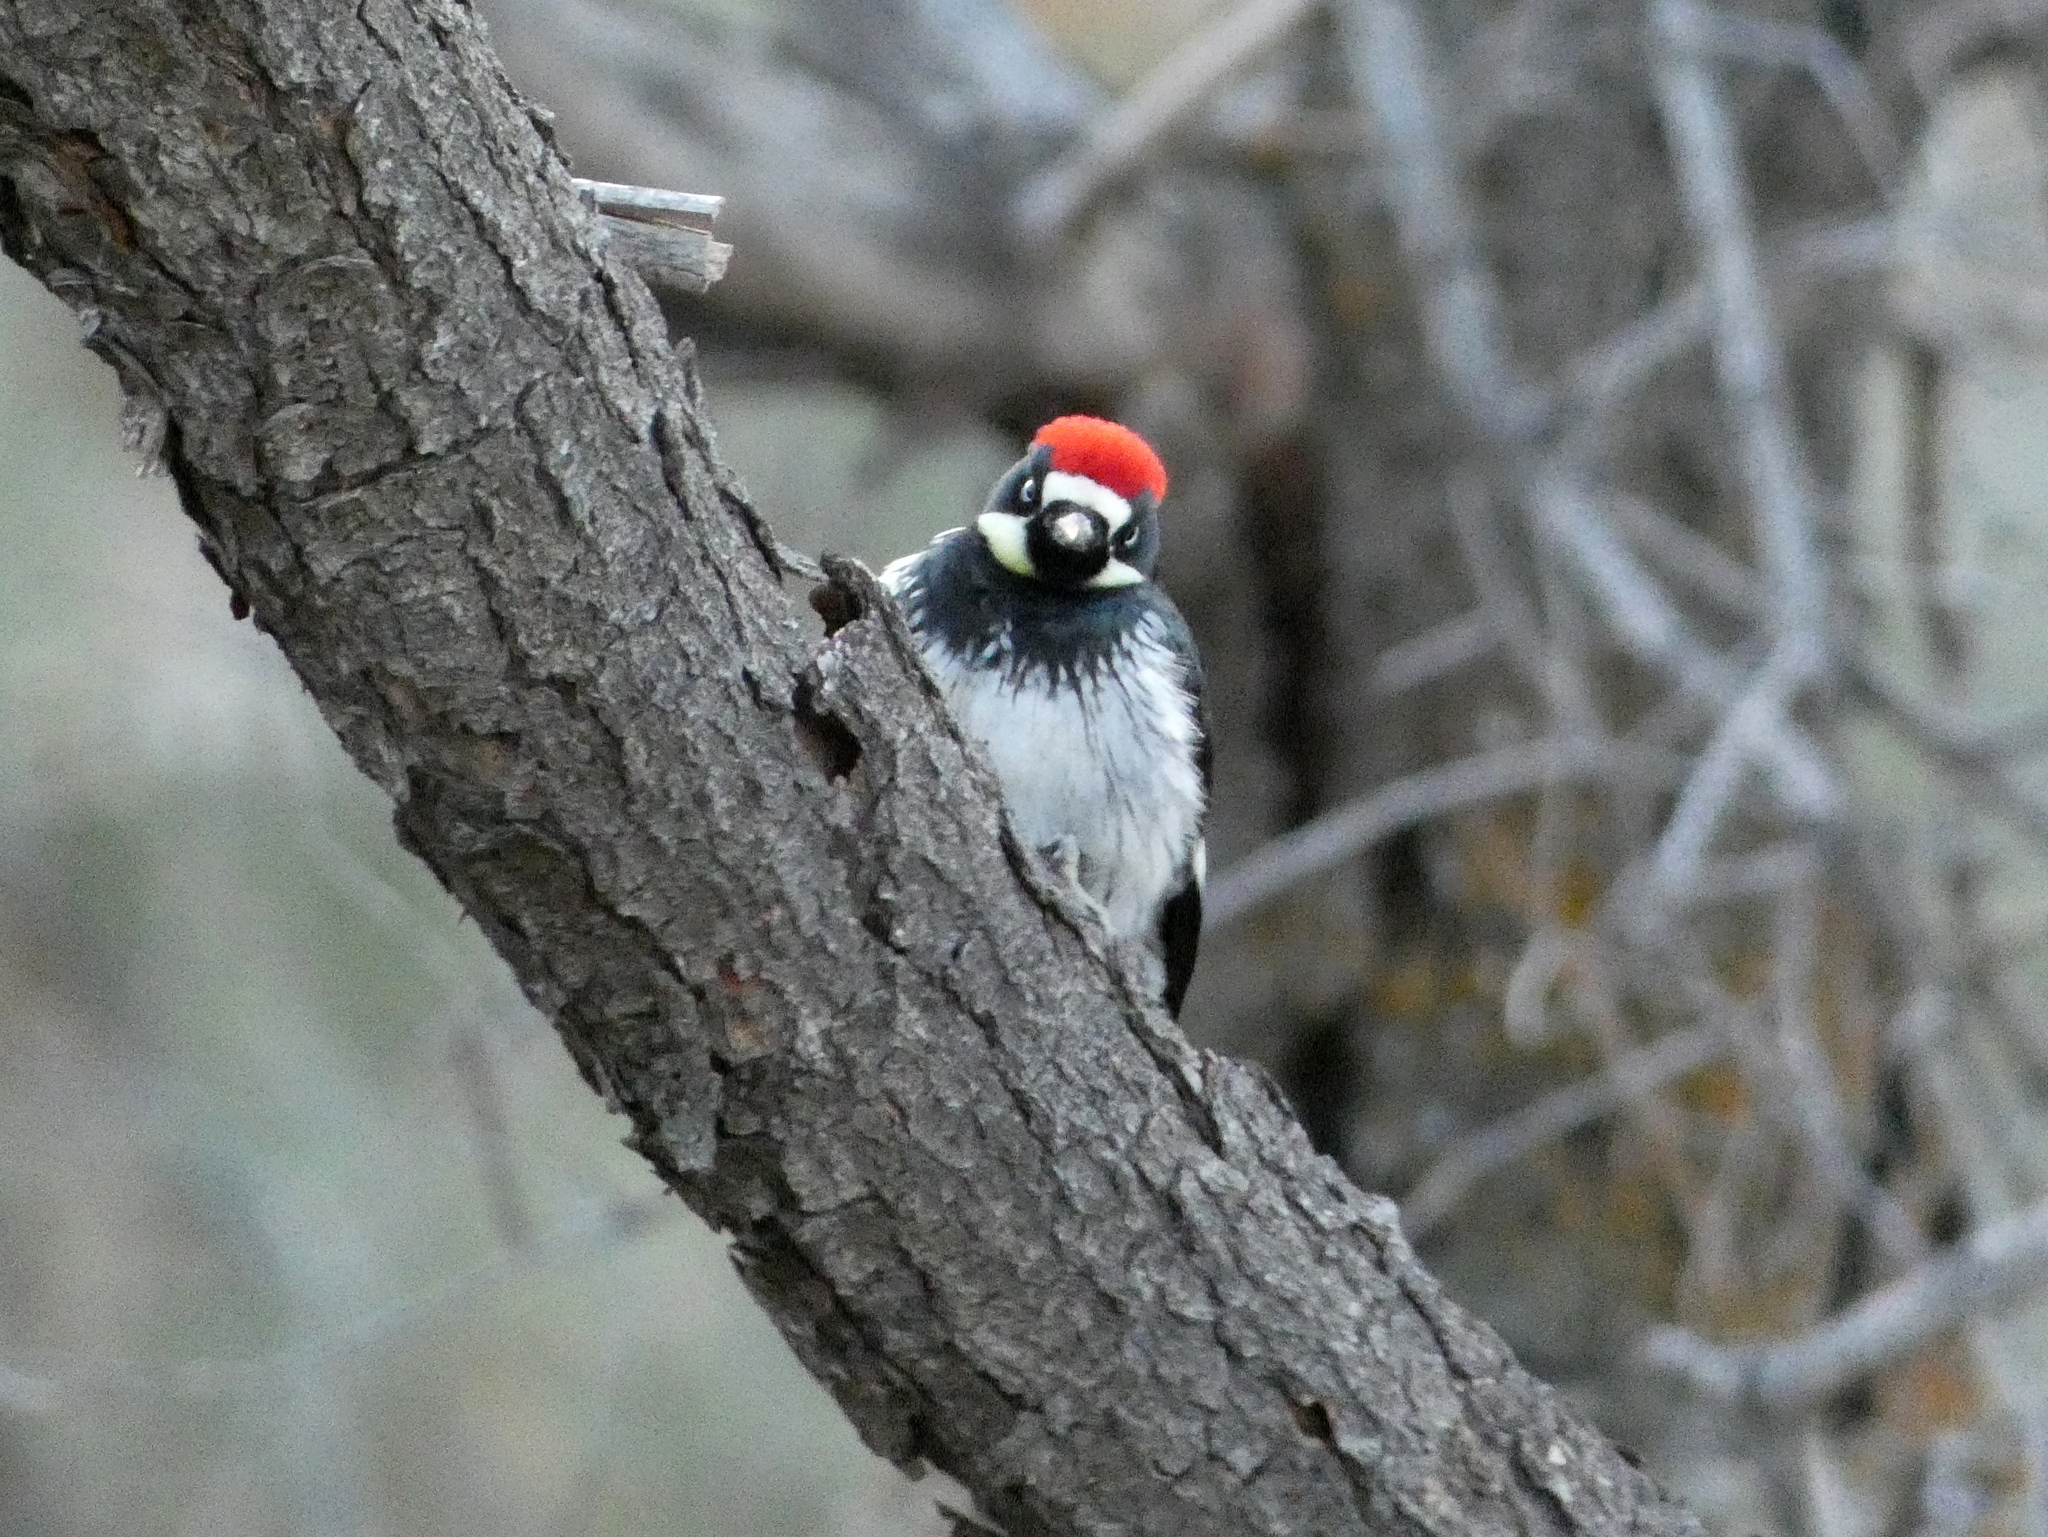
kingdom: Animalia
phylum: Chordata
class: Aves
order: Piciformes
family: Picidae
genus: Melanerpes
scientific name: Melanerpes formicivorus
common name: Acorn woodpecker
